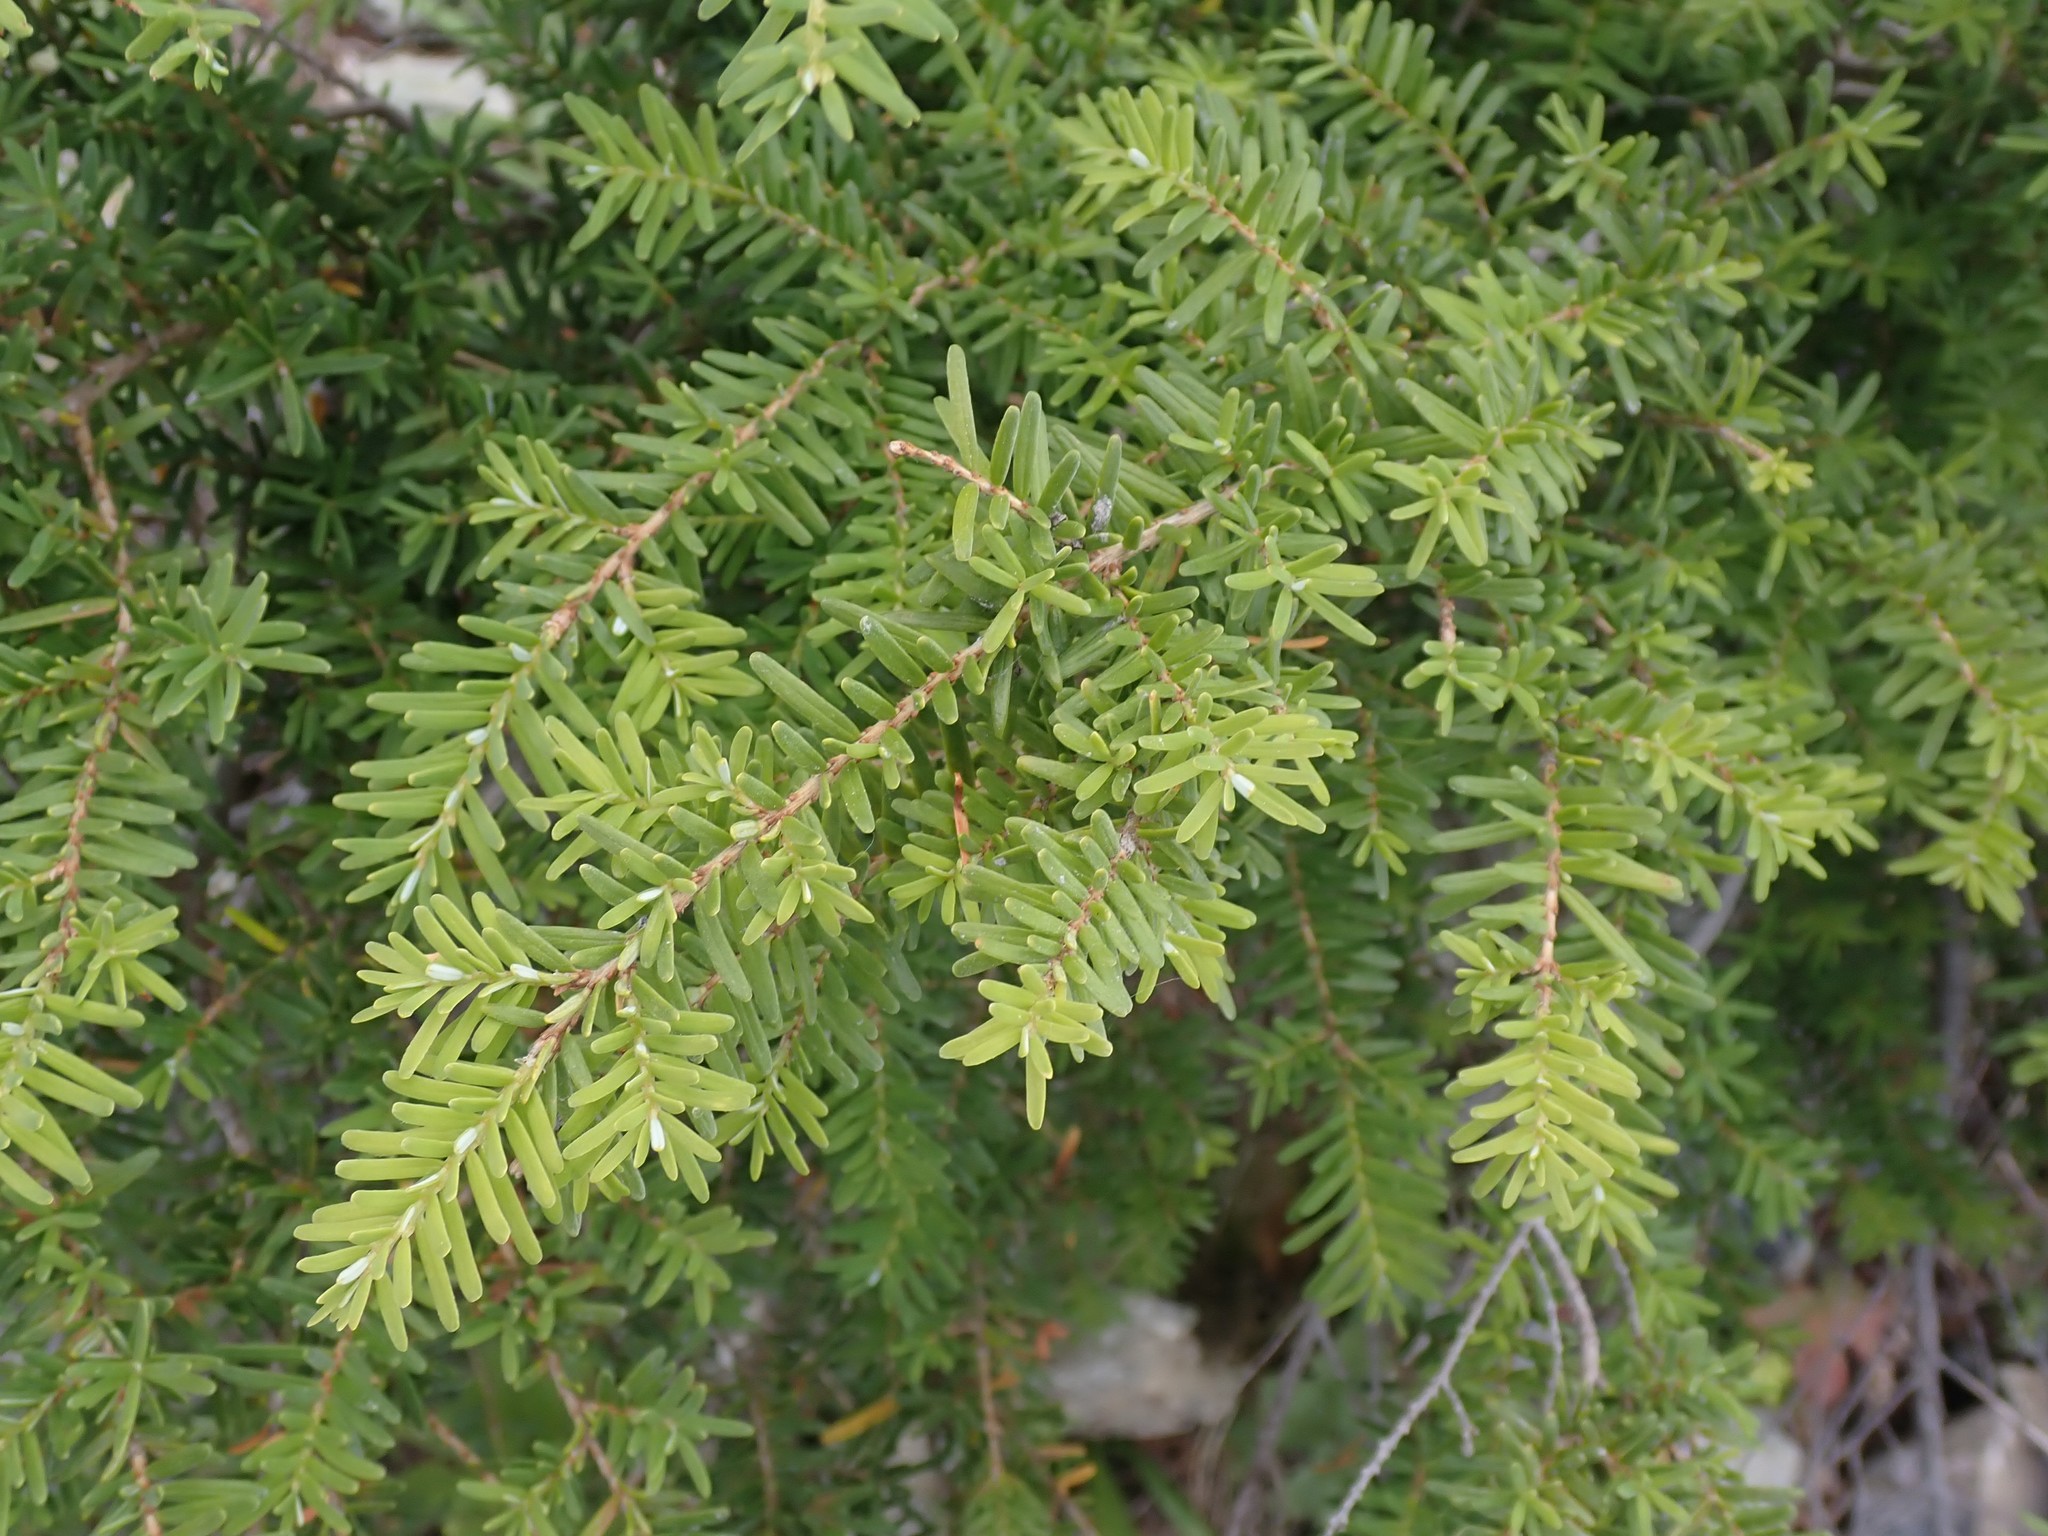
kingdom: Plantae
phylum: Tracheophyta
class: Pinopsida
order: Pinales
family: Pinaceae
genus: Tsuga
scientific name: Tsuga heterophylla
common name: Western hemlock
